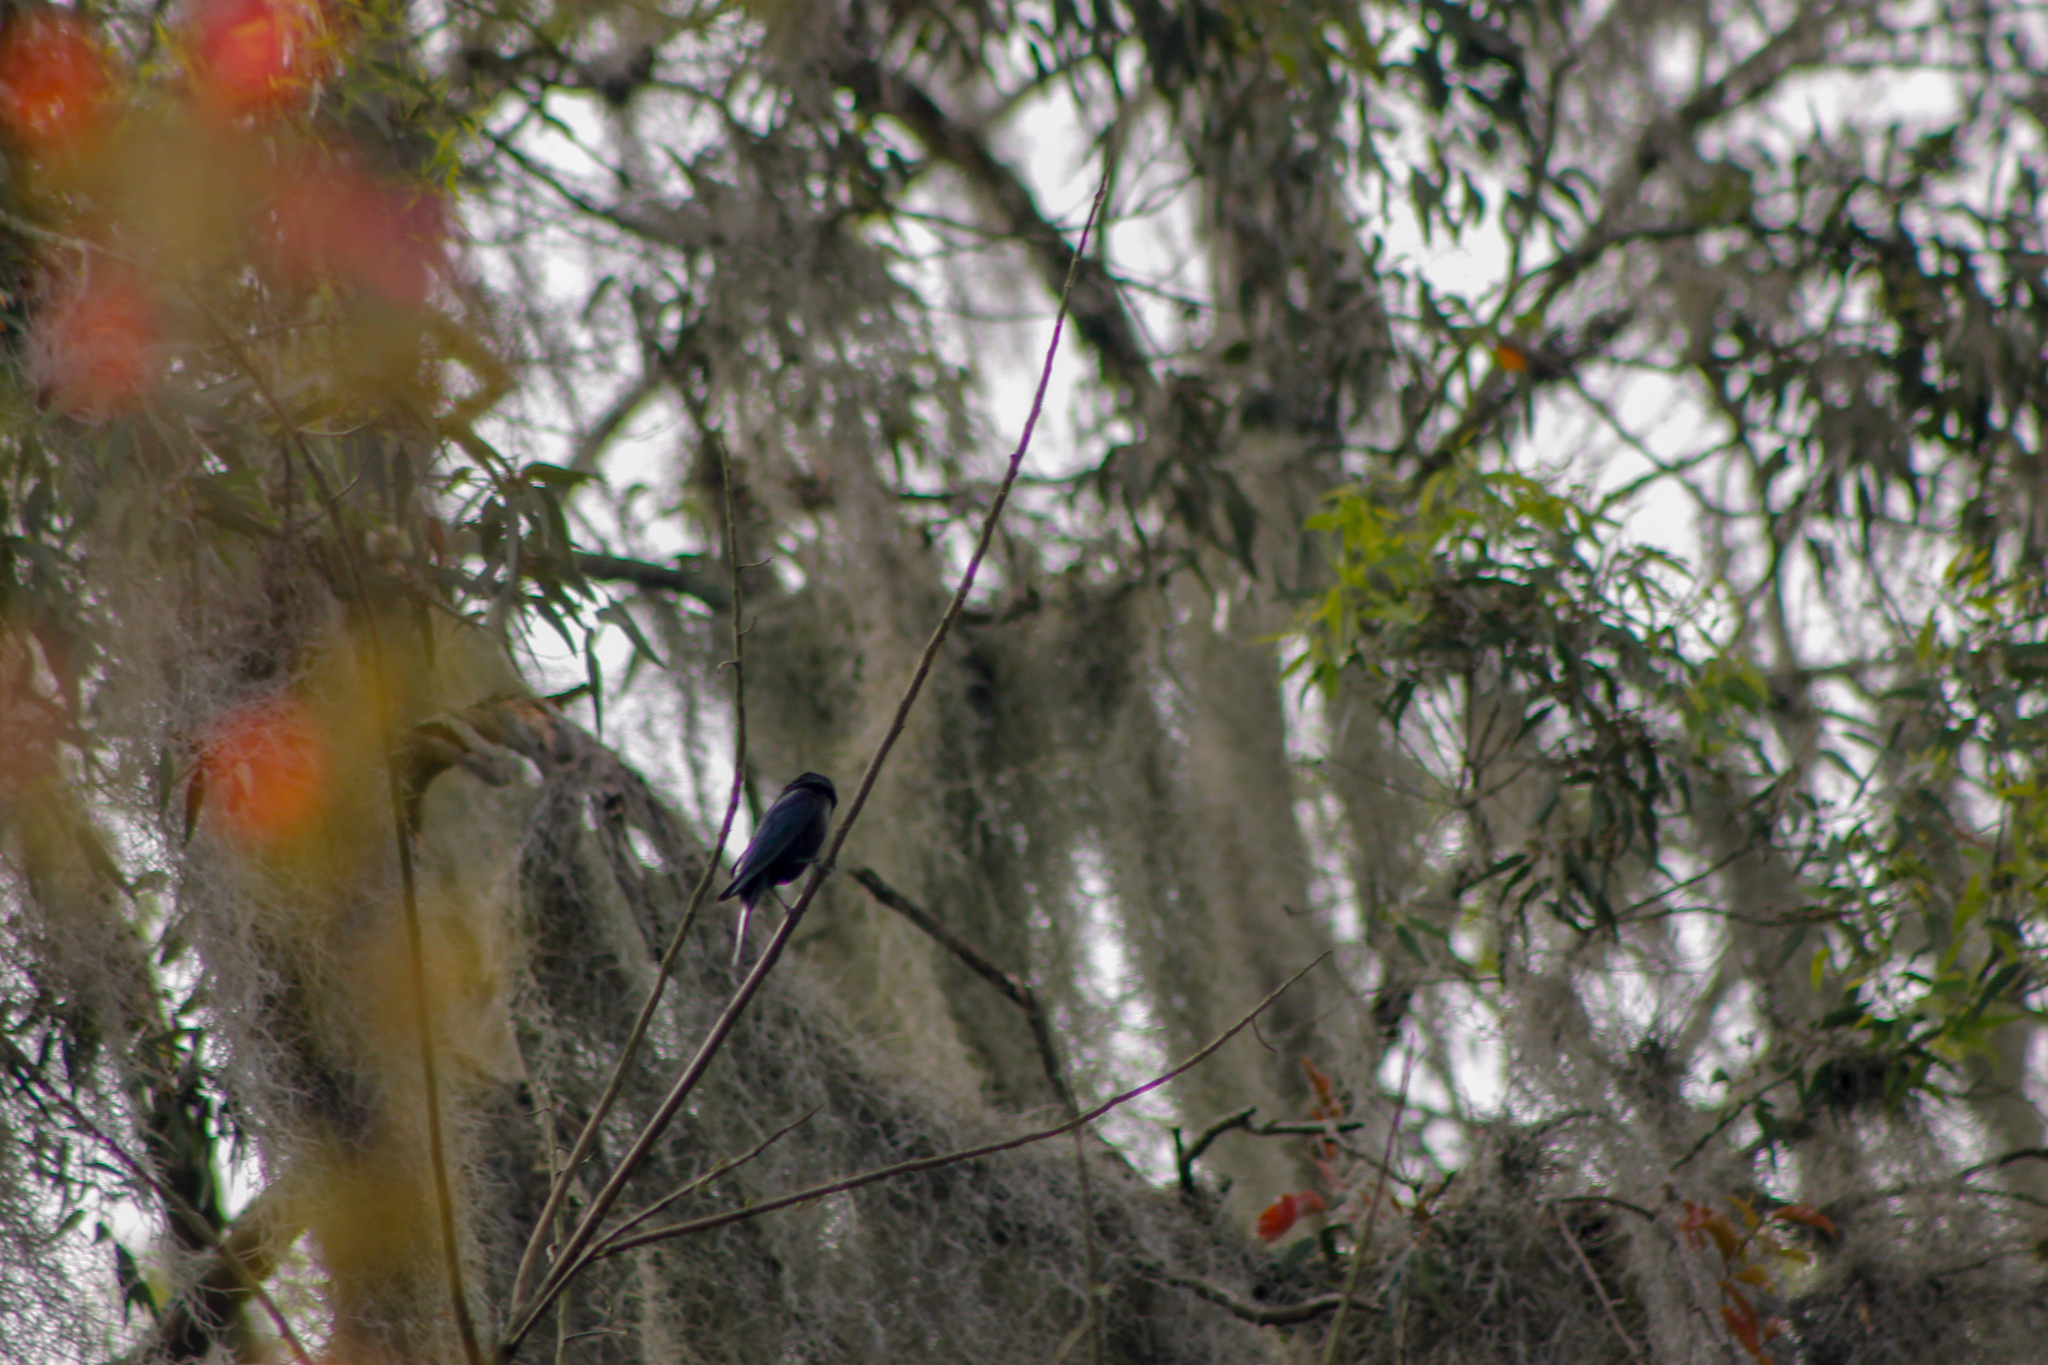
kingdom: Animalia
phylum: Chordata
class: Aves
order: Passeriformes
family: Icteridae
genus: Molothrus
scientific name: Molothrus bonariensis
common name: Shiny cowbird
